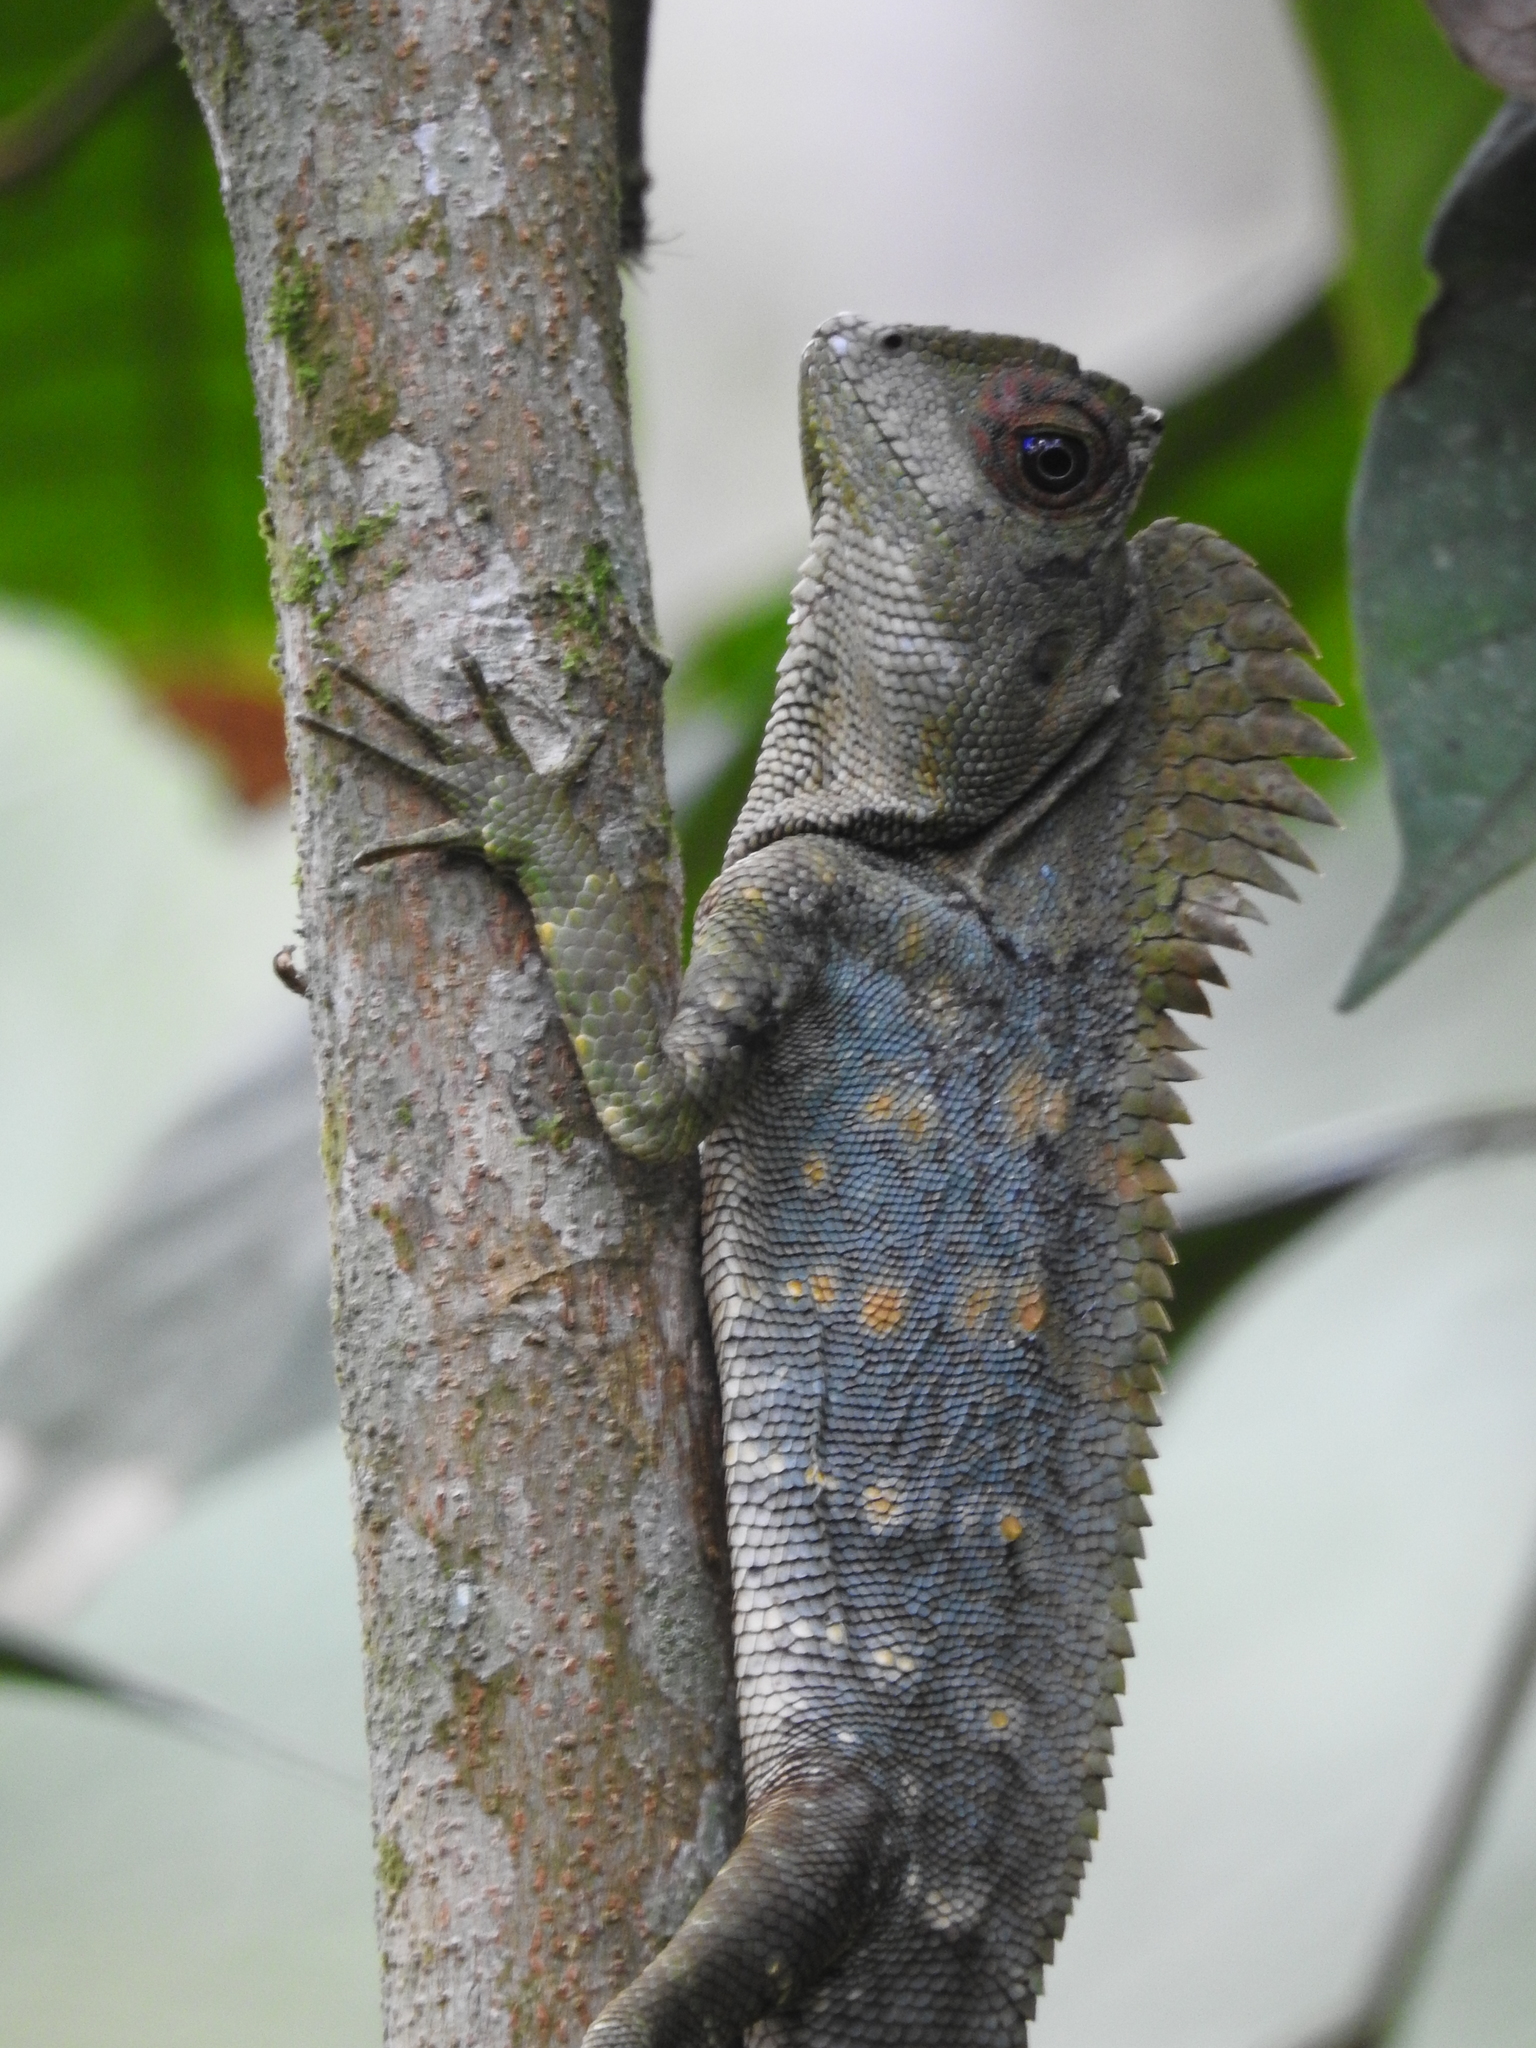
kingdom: Animalia
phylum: Chordata
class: Squamata
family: Agamidae
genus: Gonocephalus
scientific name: Gonocephalus chamaeleontinus
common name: Chameleon anglehead lizard
